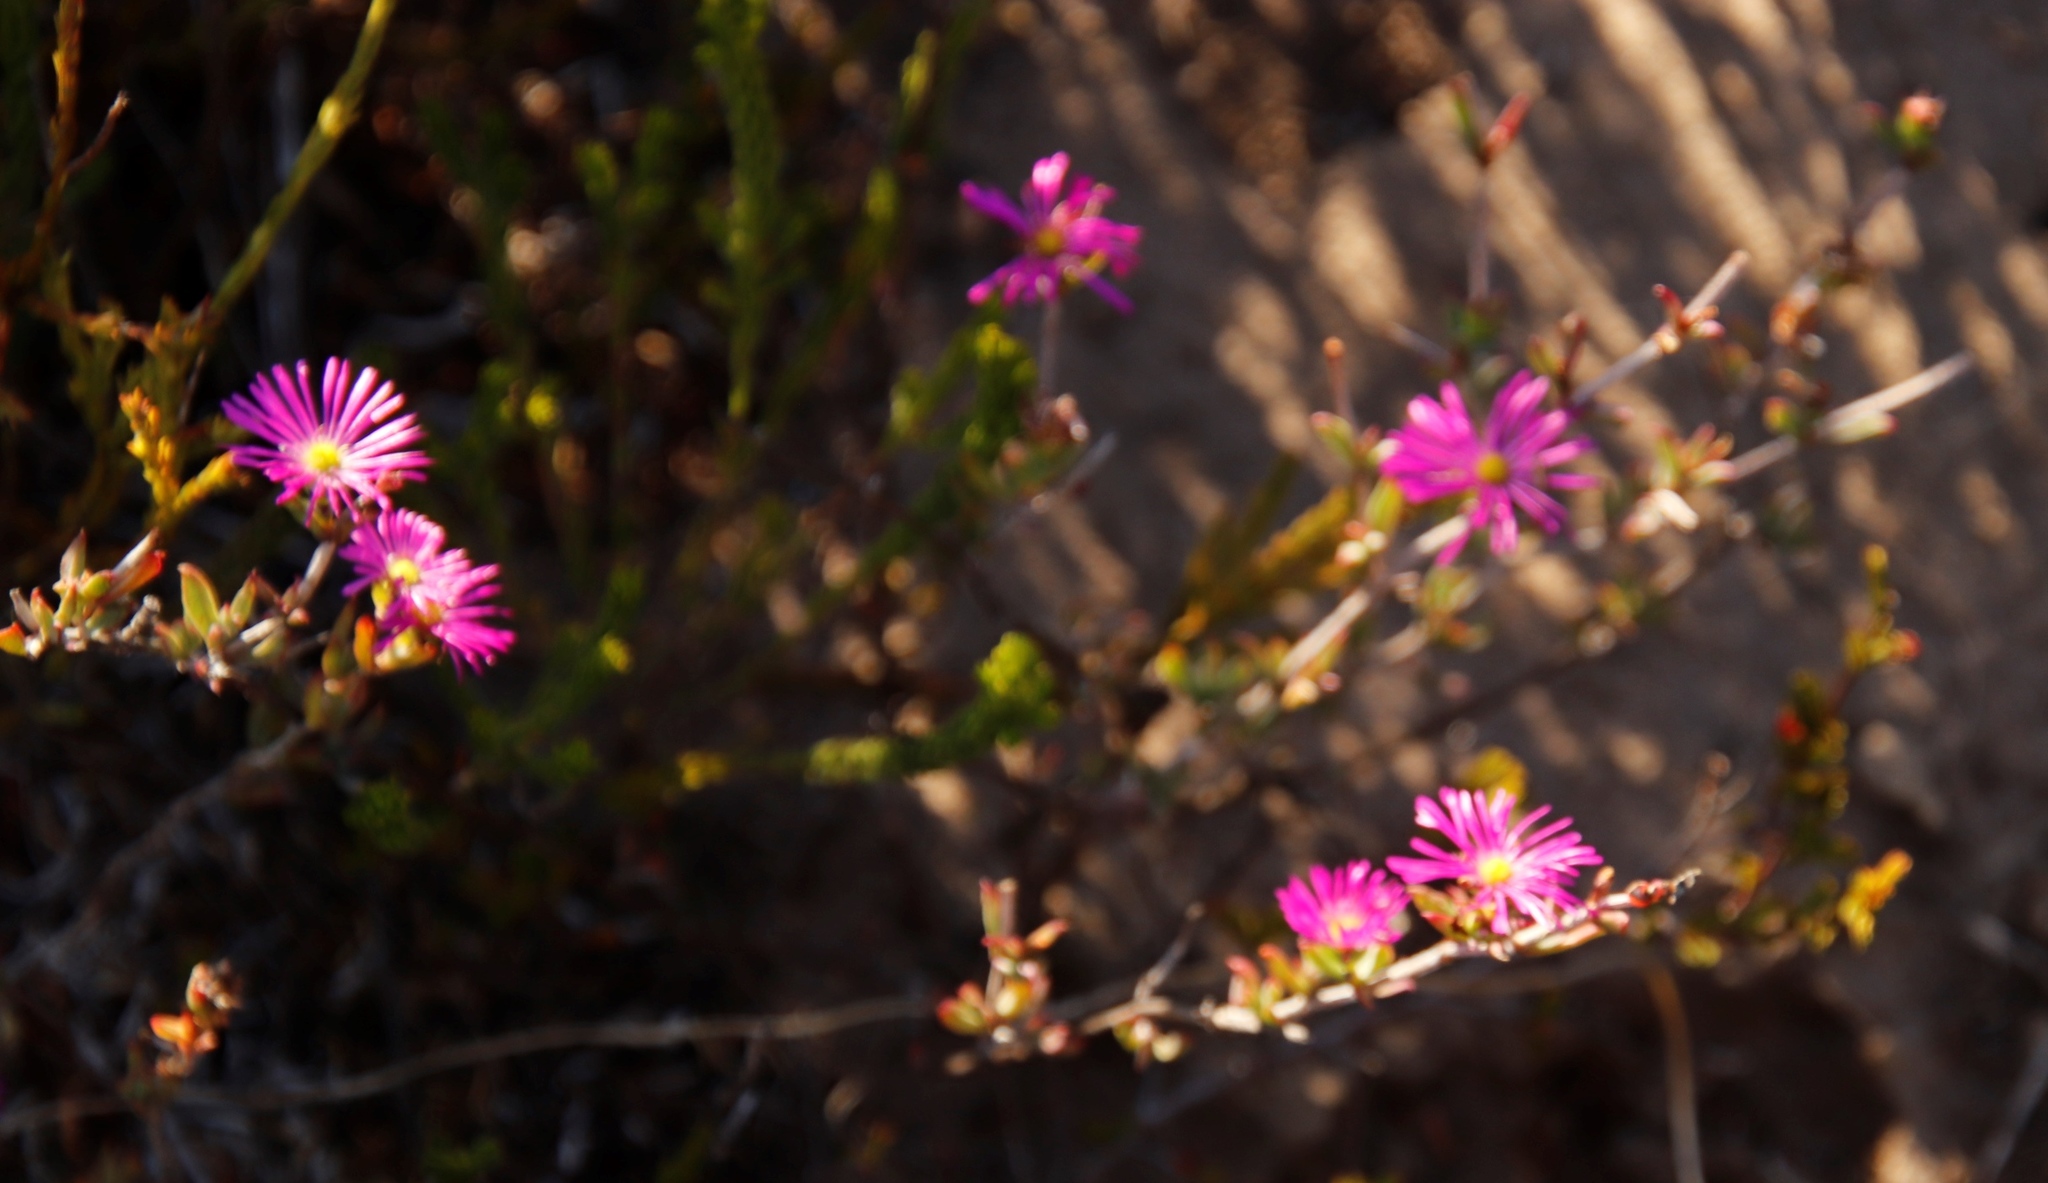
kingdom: Plantae
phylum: Tracheophyta
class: Magnoliopsida
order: Caryophyllales
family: Aizoaceae
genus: Erepsia
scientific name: Erepsia anceps
